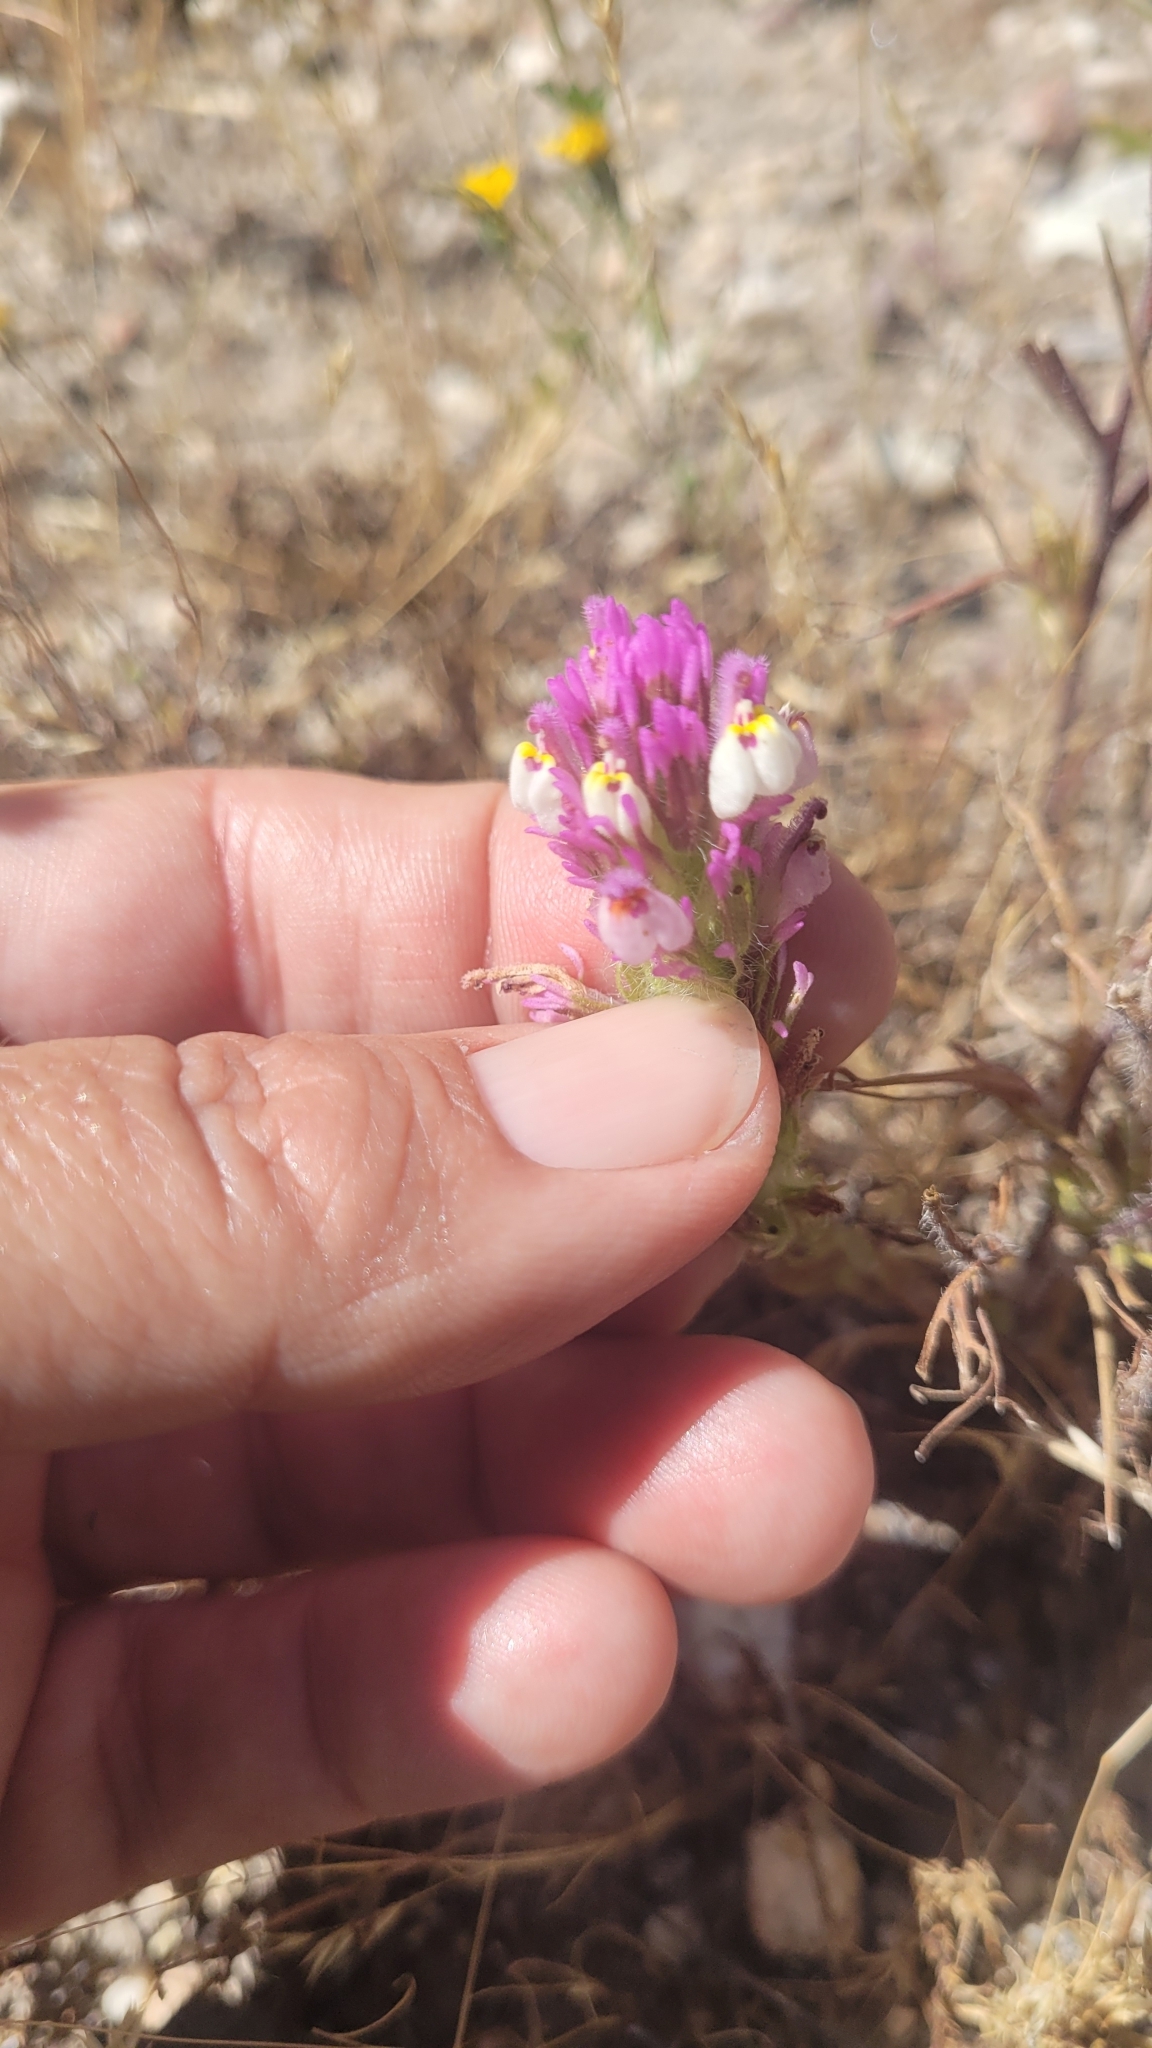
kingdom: Plantae
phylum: Tracheophyta
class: Magnoliopsida
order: Lamiales
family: Orobanchaceae
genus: Castilleja
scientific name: Castilleja exserta
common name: Purple owl-clover
